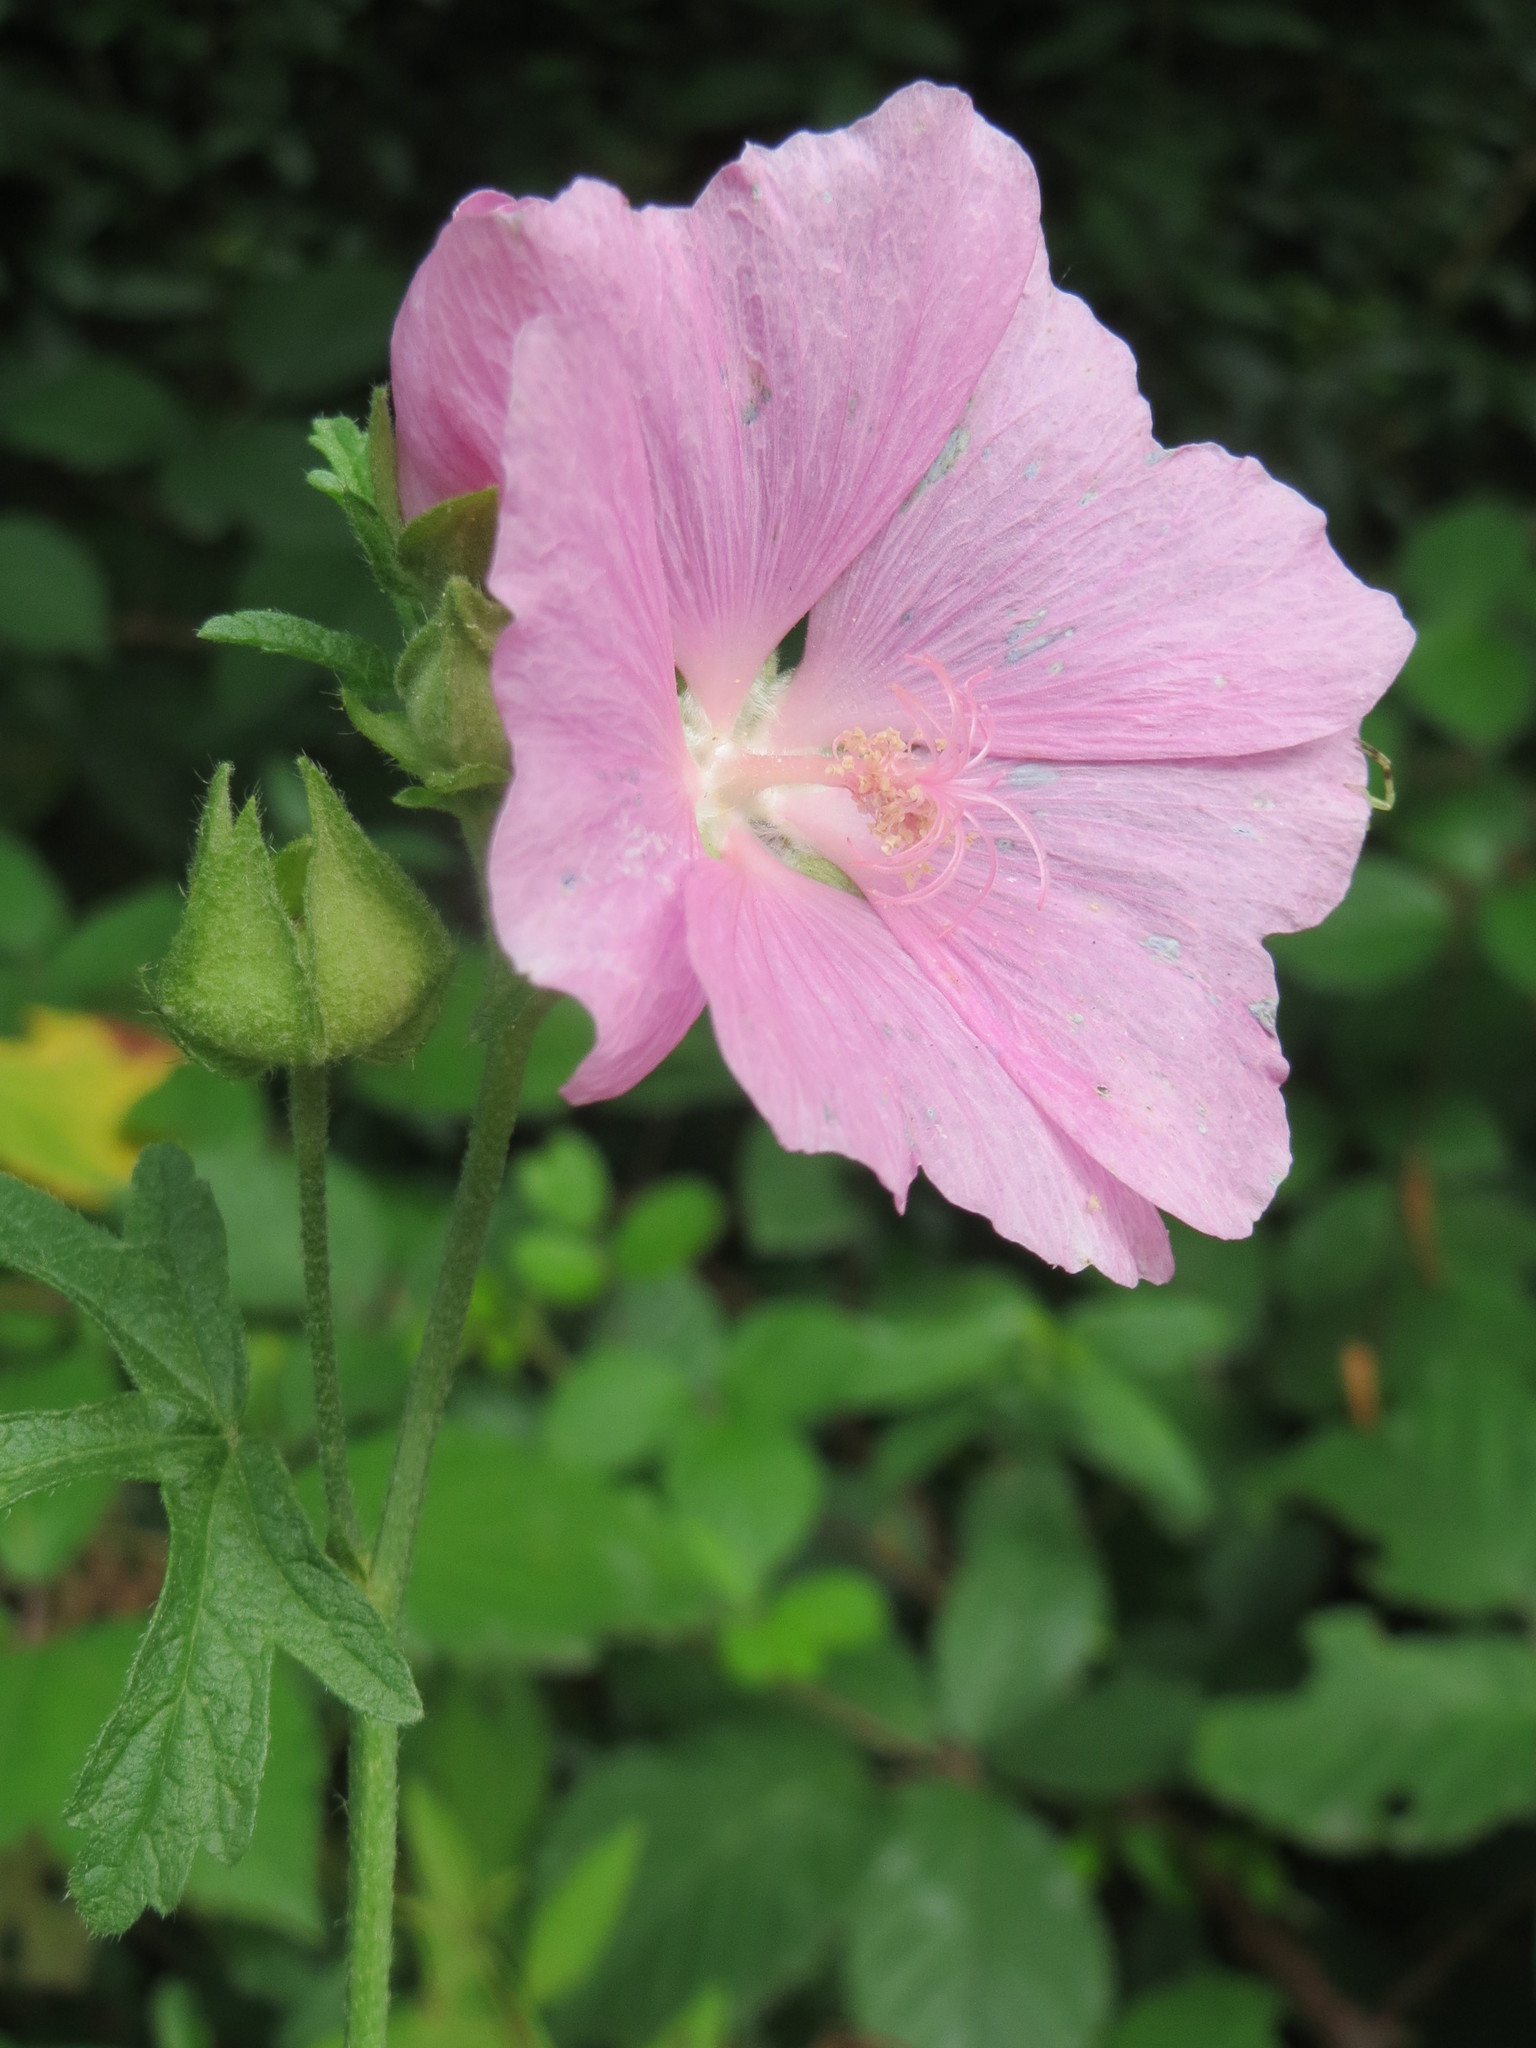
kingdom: Plantae
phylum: Tracheophyta
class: Magnoliopsida
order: Malvales
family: Malvaceae
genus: Malva
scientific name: Malva alcea
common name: Greater musk-mallow
